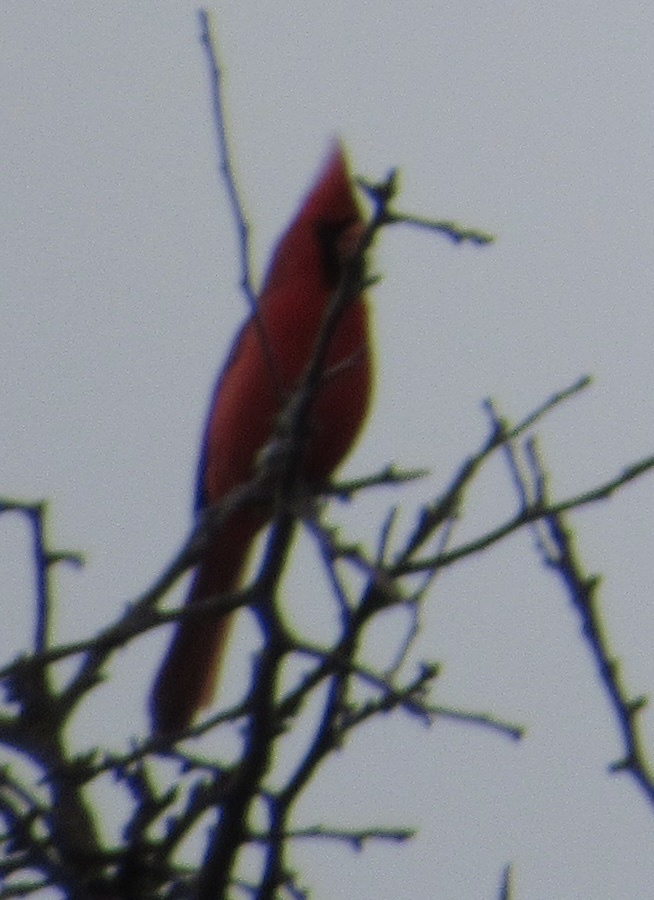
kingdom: Animalia
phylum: Chordata
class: Aves
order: Passeriformes
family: Cardinalidae
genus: Cardinalis
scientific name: Cardinalis cardinalis
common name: Northern cardinal
